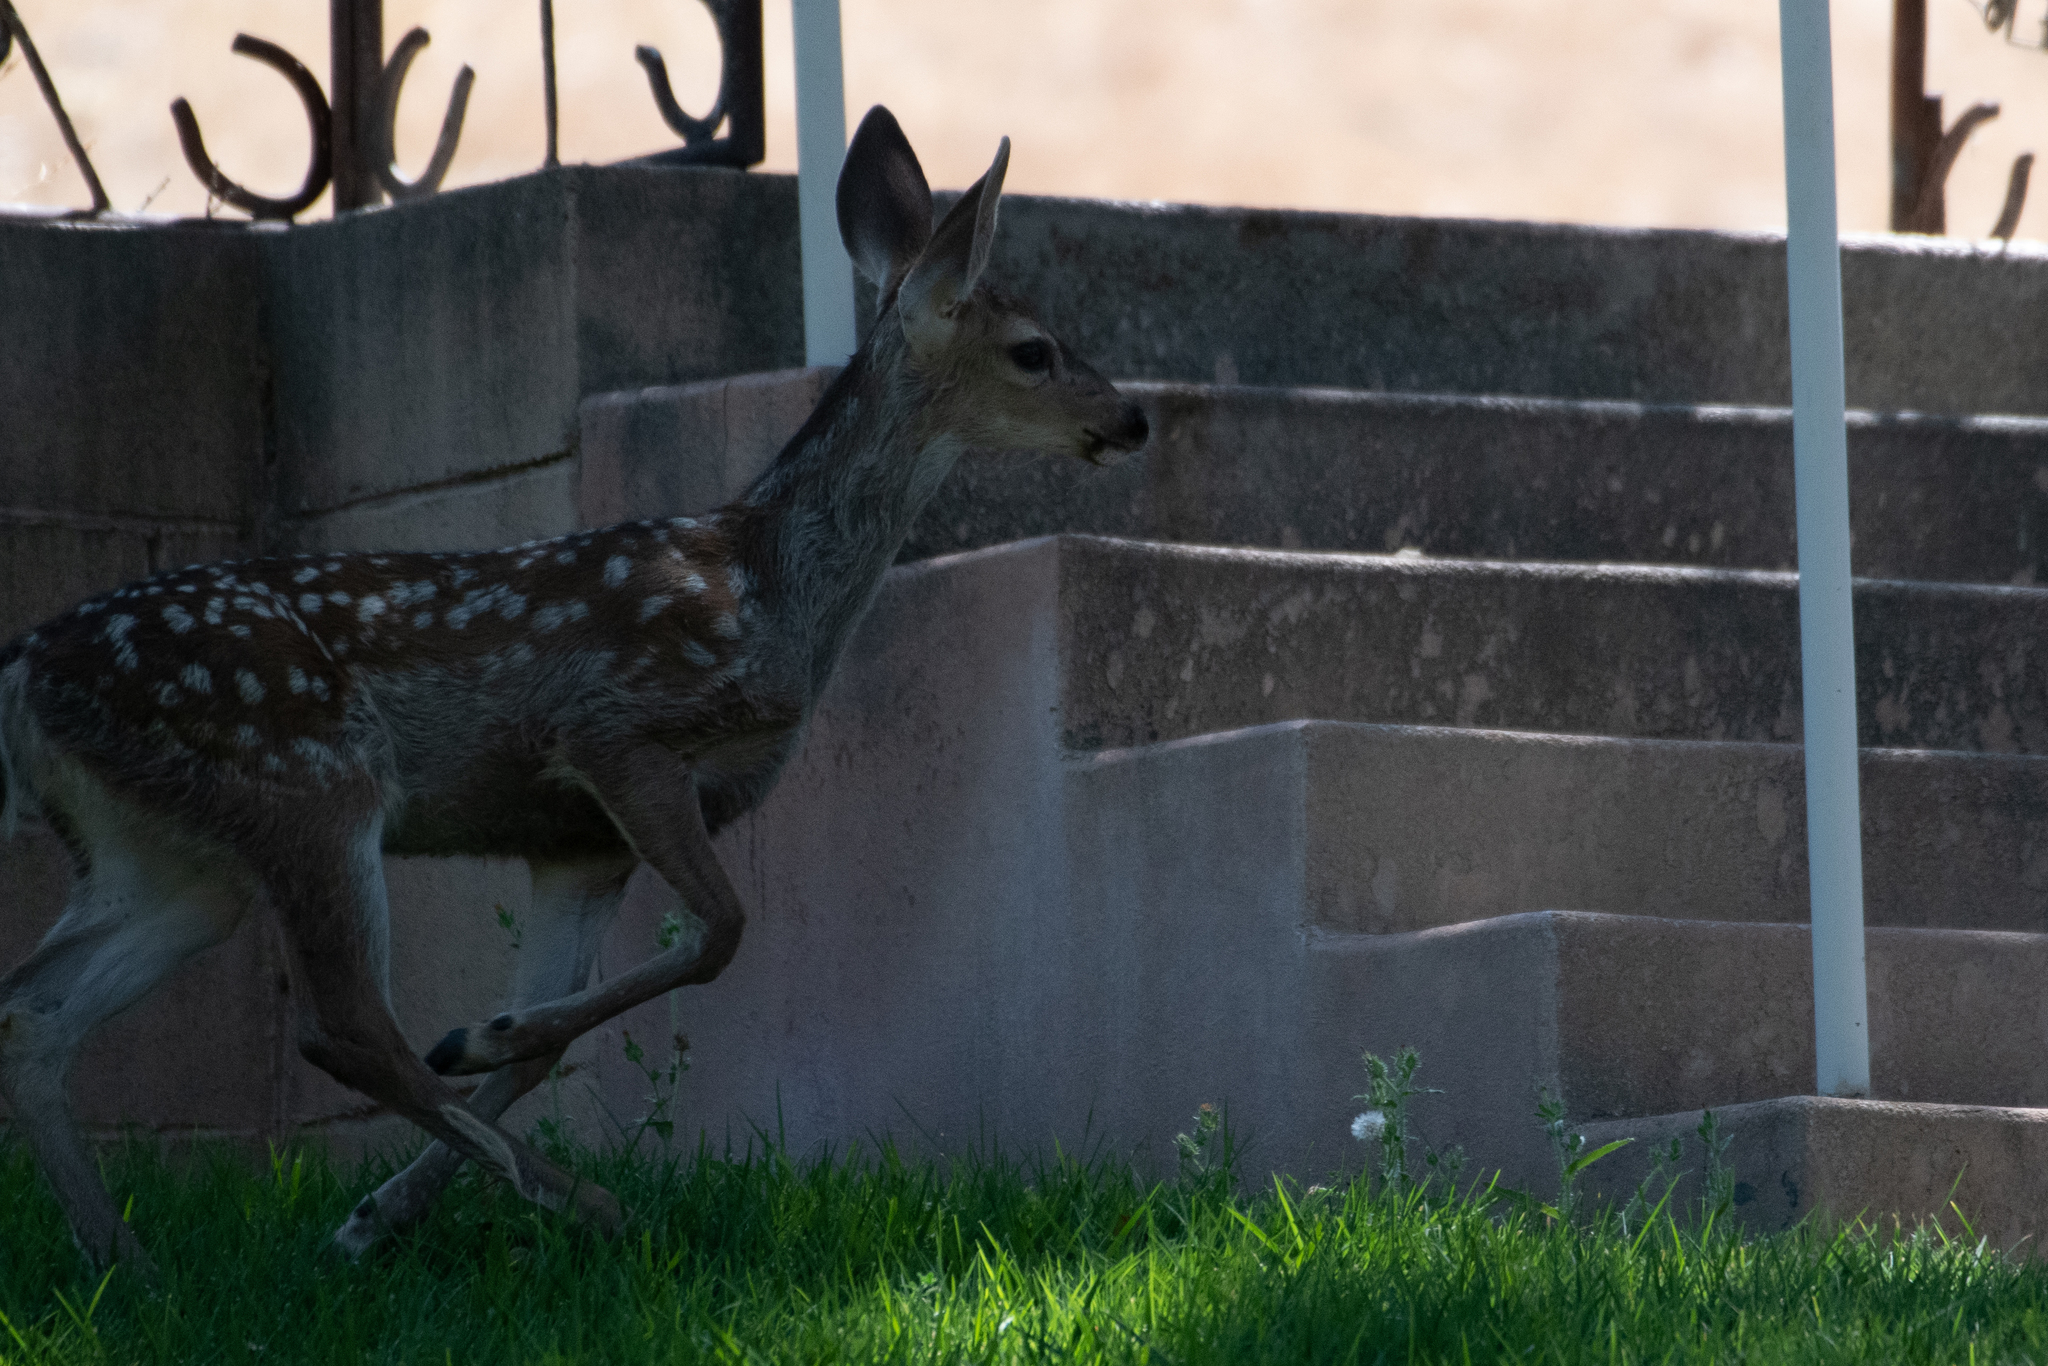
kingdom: Animalia
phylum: Chordata
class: Mammalia
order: Artiodactyla
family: Cervidae
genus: Odocoileus
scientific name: Odocoileus hemionus
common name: Mule deer
